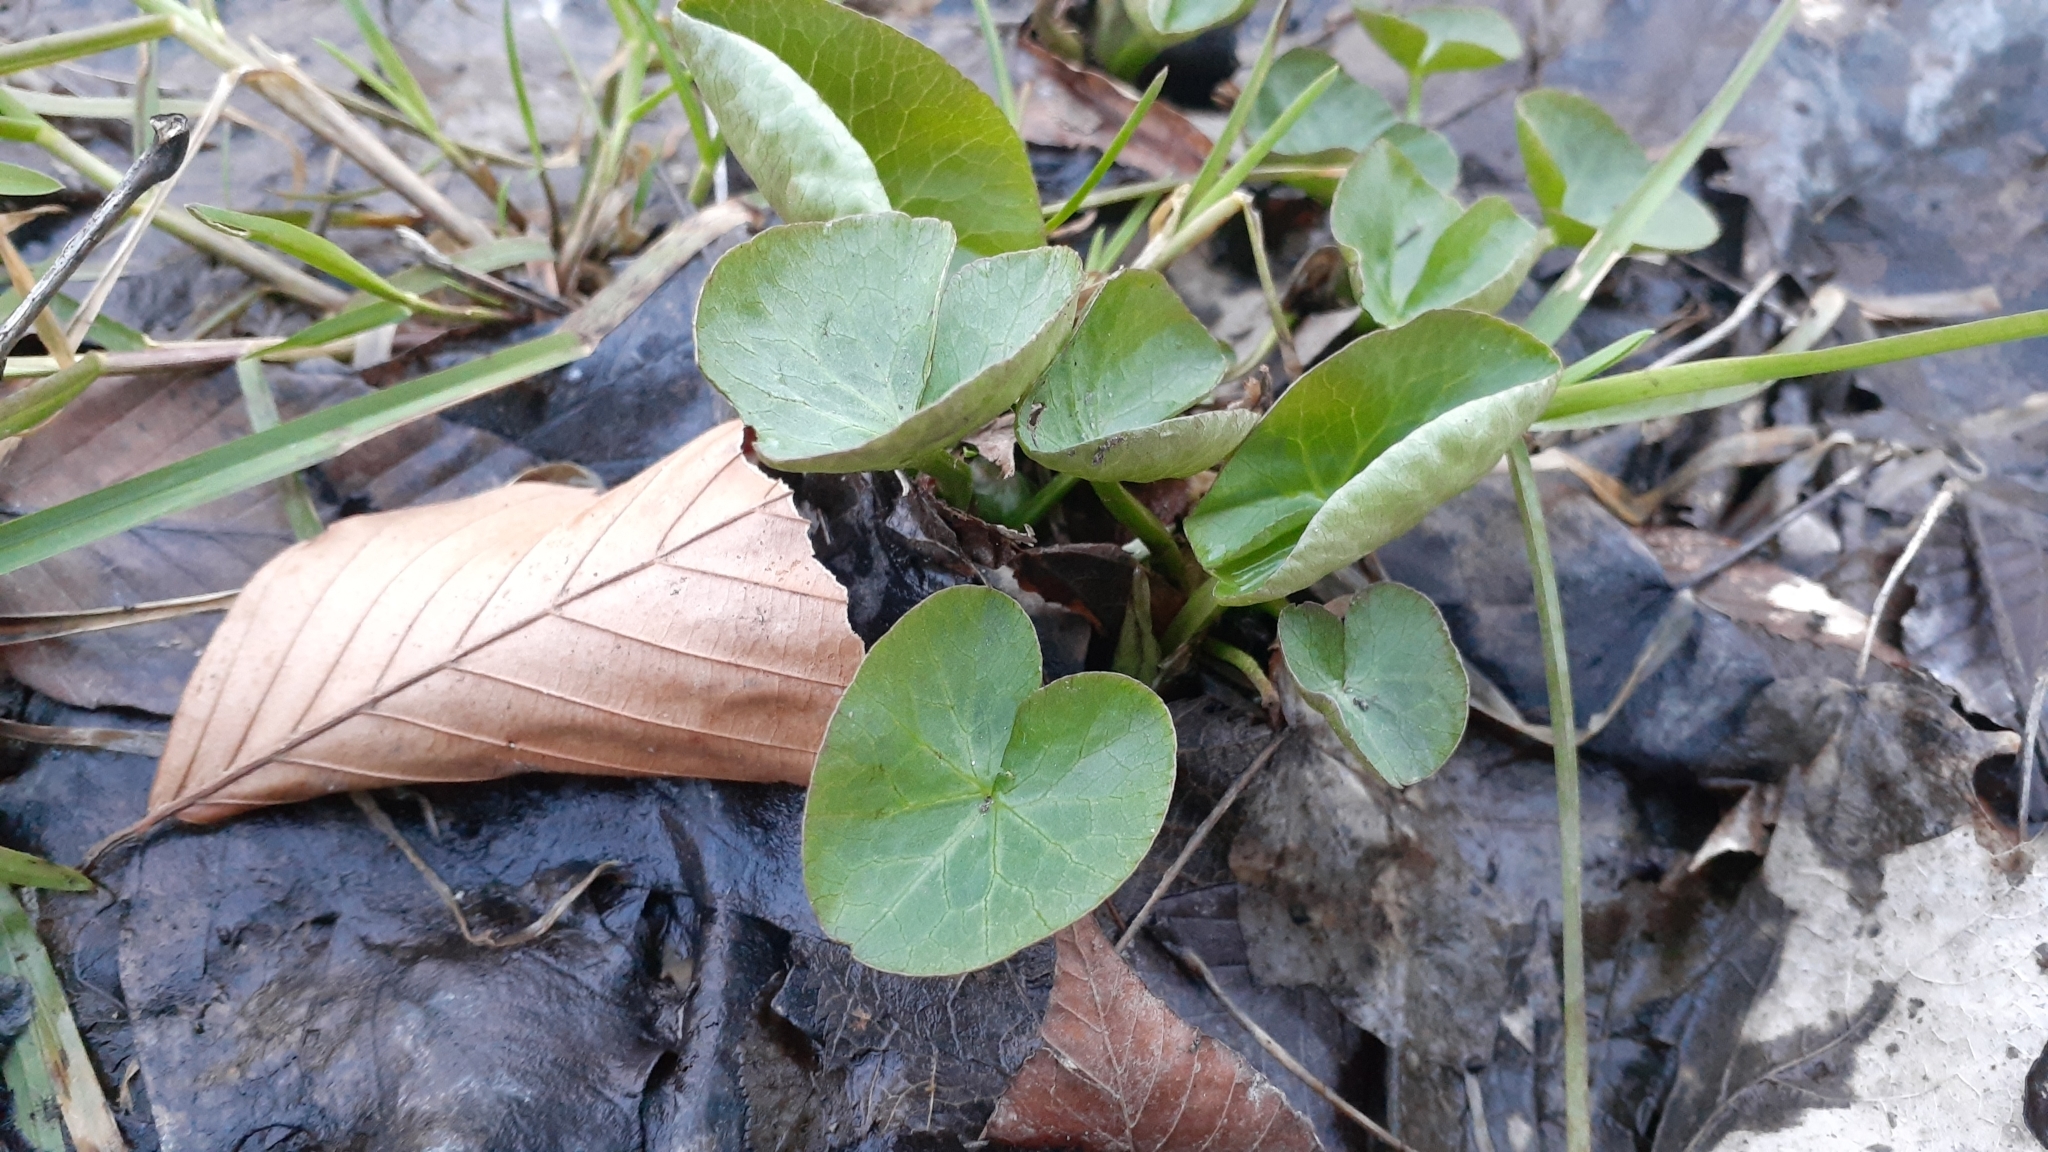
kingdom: Plantae
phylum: Tracheophyta
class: Magnoliopsida
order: Ranunculales
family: Ranunculaceae
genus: Caltha
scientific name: Caltha palustris
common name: Marsh marigold
